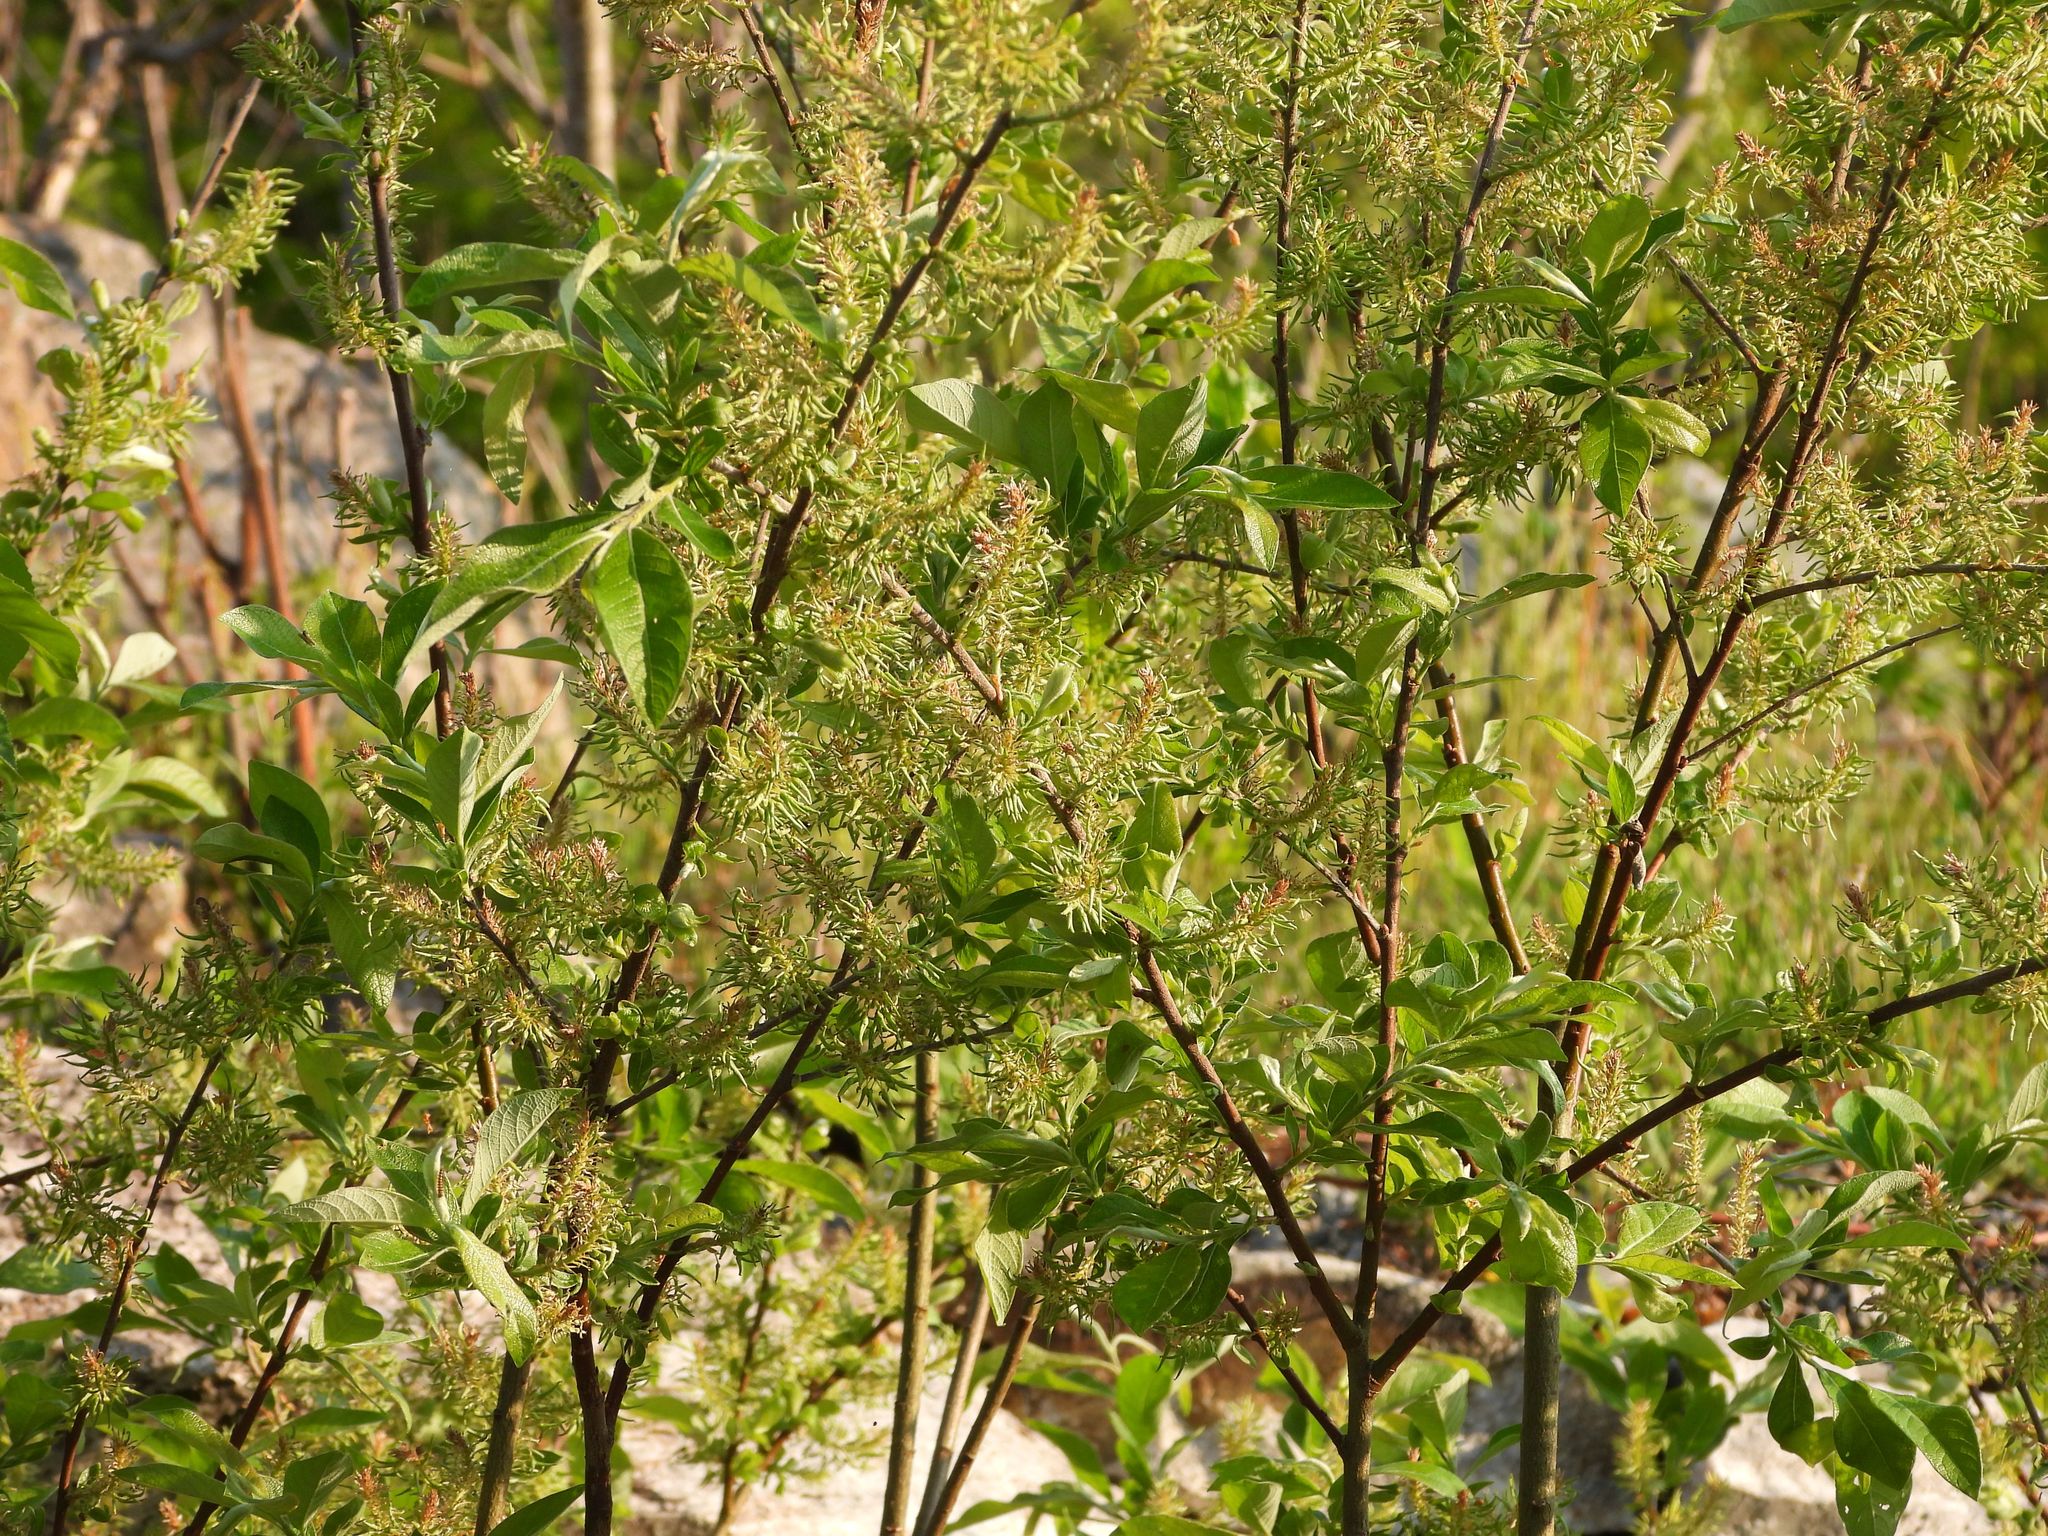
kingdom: Plantae
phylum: Tracheophyta
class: Magnoliopsida
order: Malpighiales
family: Salicaceae
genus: Salix
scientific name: Salix bebbiana
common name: Bebb's willow
